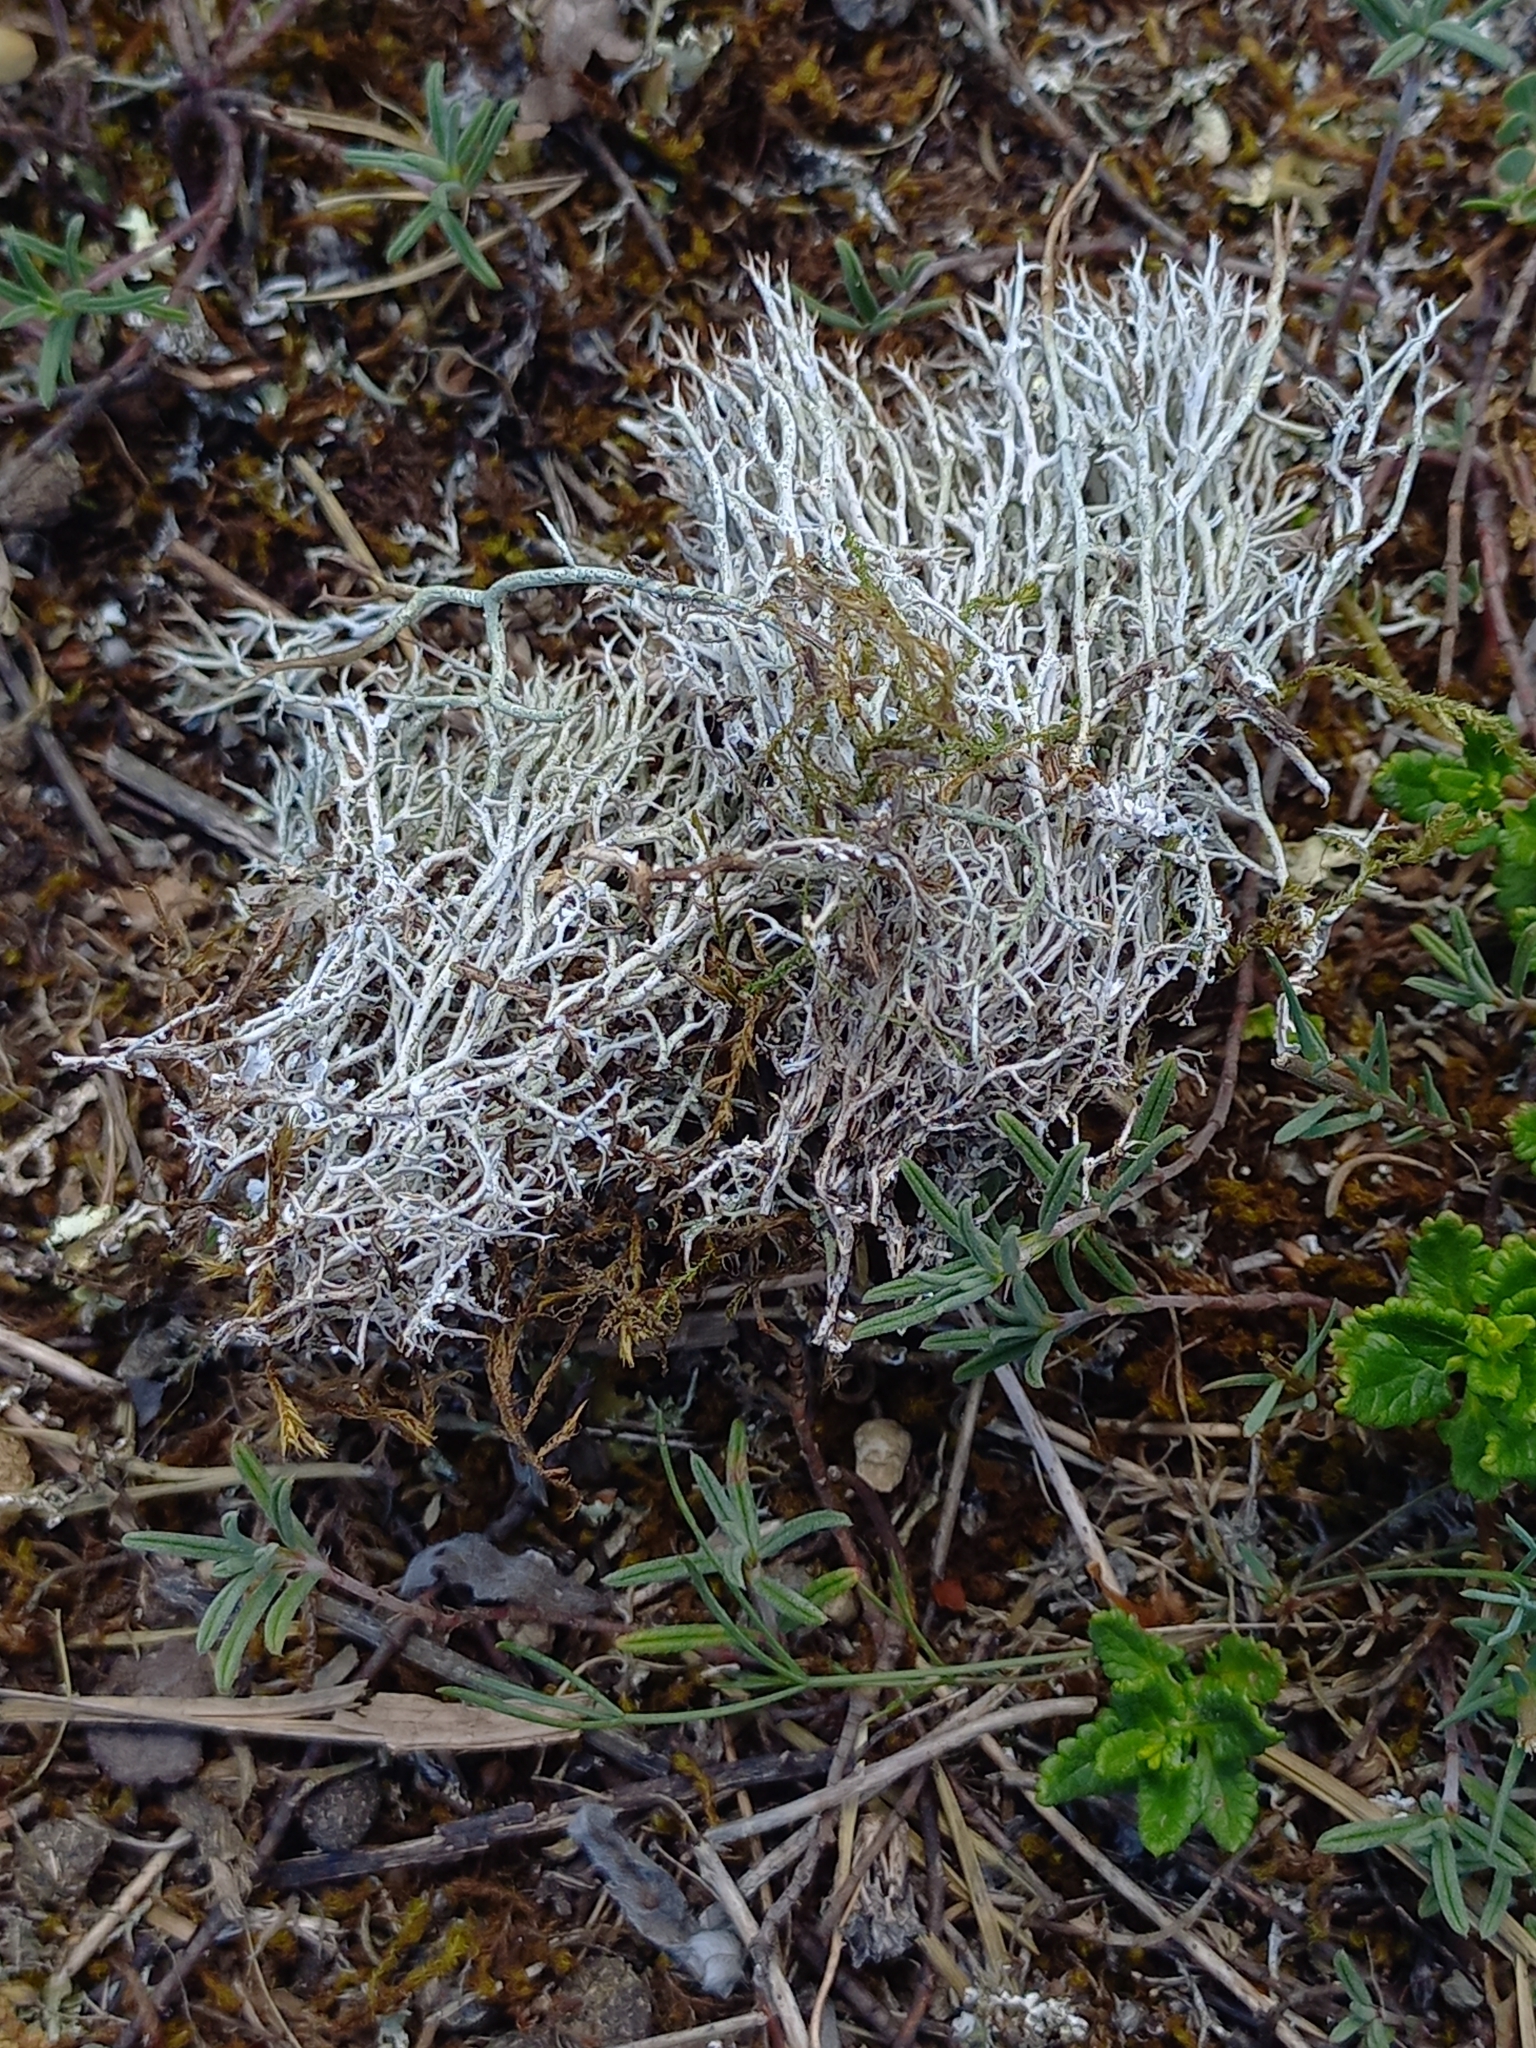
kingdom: Fungi
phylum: Ascomycota
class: Lecanoromycetes
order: Lecanorales
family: Cladoniaceae
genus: Cladonia
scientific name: Cladonia furcata
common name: Many-forked cladonia
